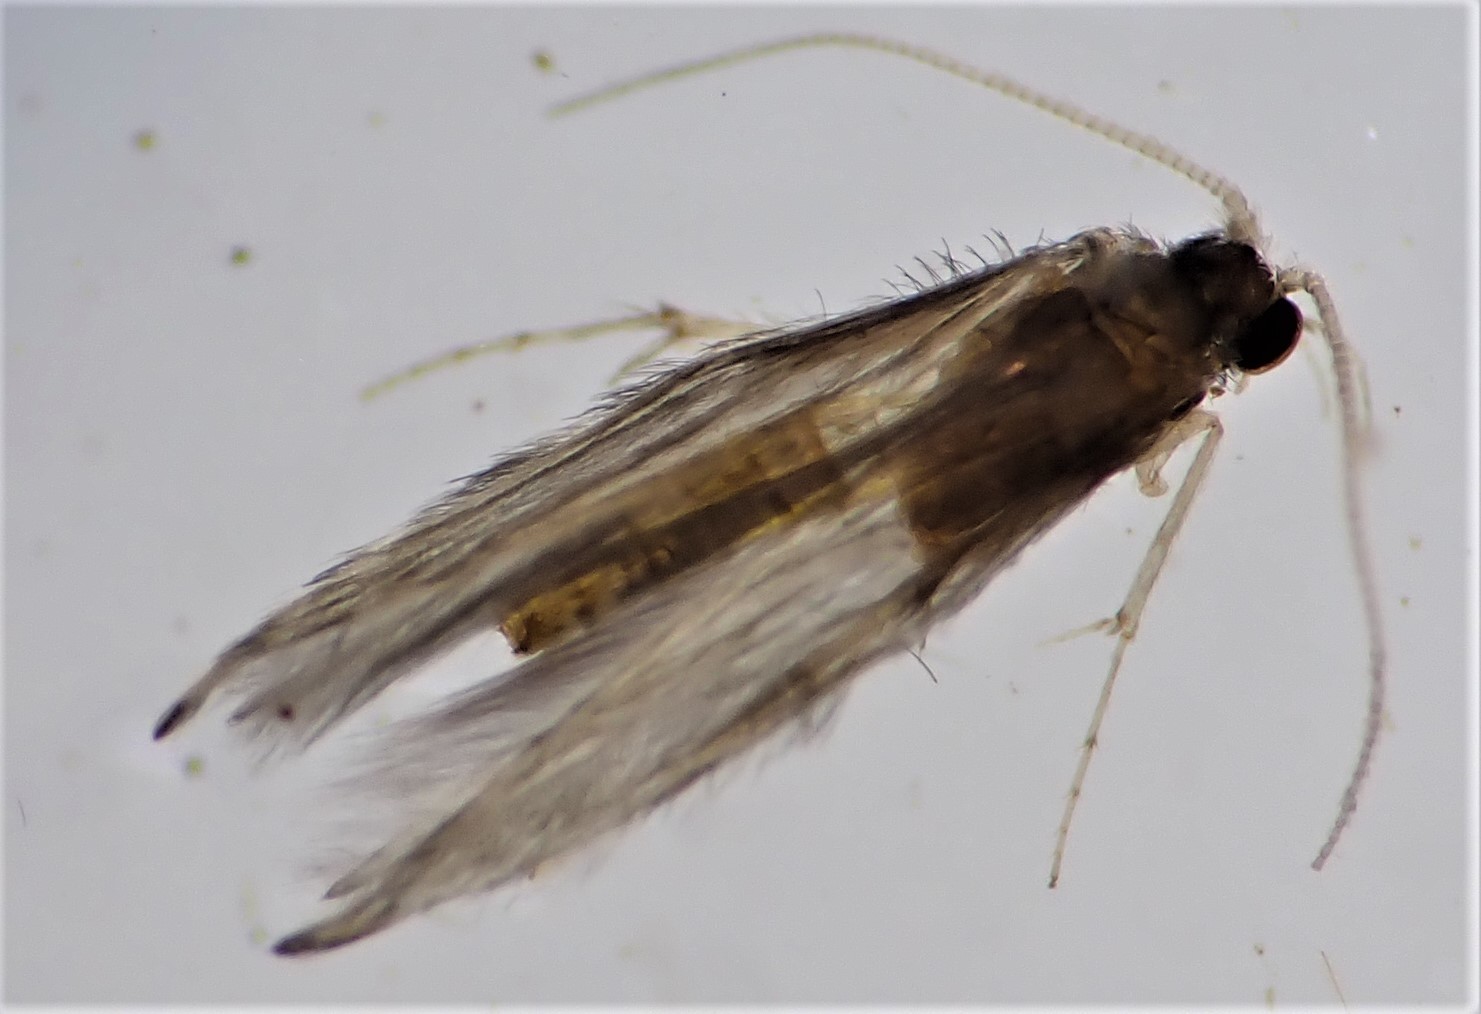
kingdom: Animalia
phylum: Arthropoda
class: Insecta
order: Trichoptera
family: Hydroptilidae
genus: Oxyethira
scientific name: Oxyethira albiceps
